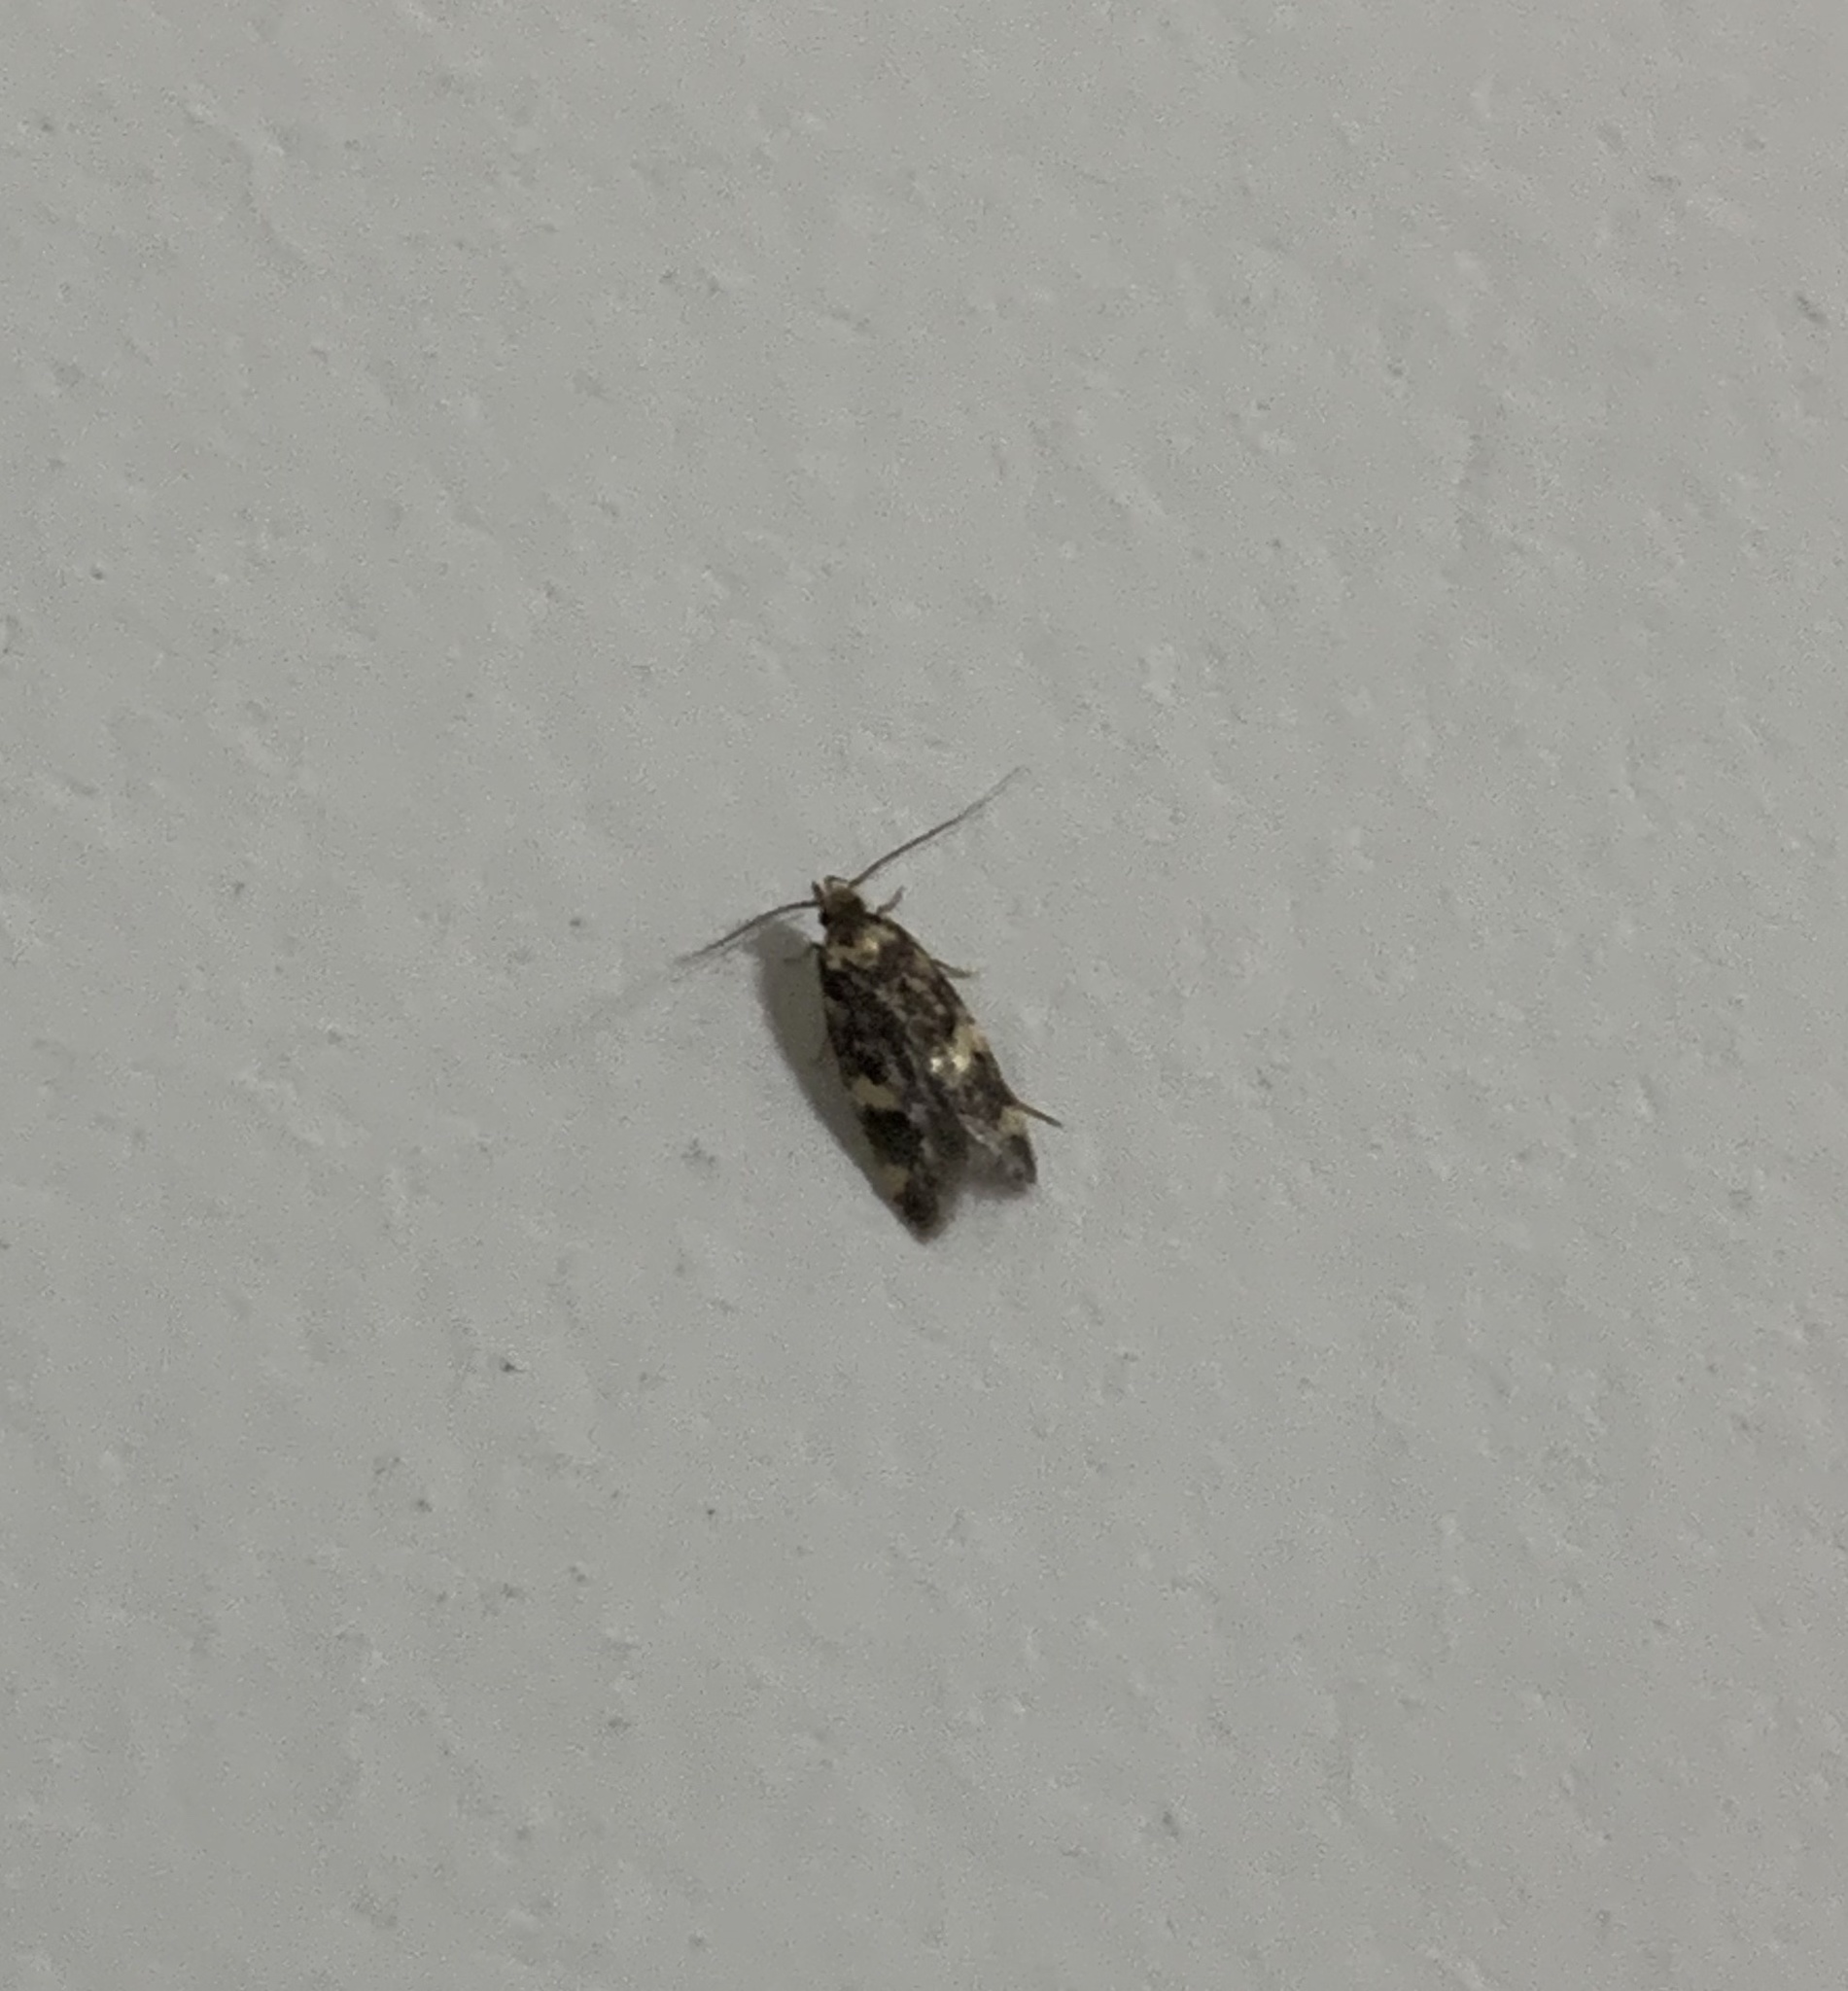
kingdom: Animalia
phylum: Arthropoda
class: Insecta
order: Lepidoptera
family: Autostichidae
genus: Oegoconia
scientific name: Oegoconia quadripuncta
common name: Four-spotted obscure
